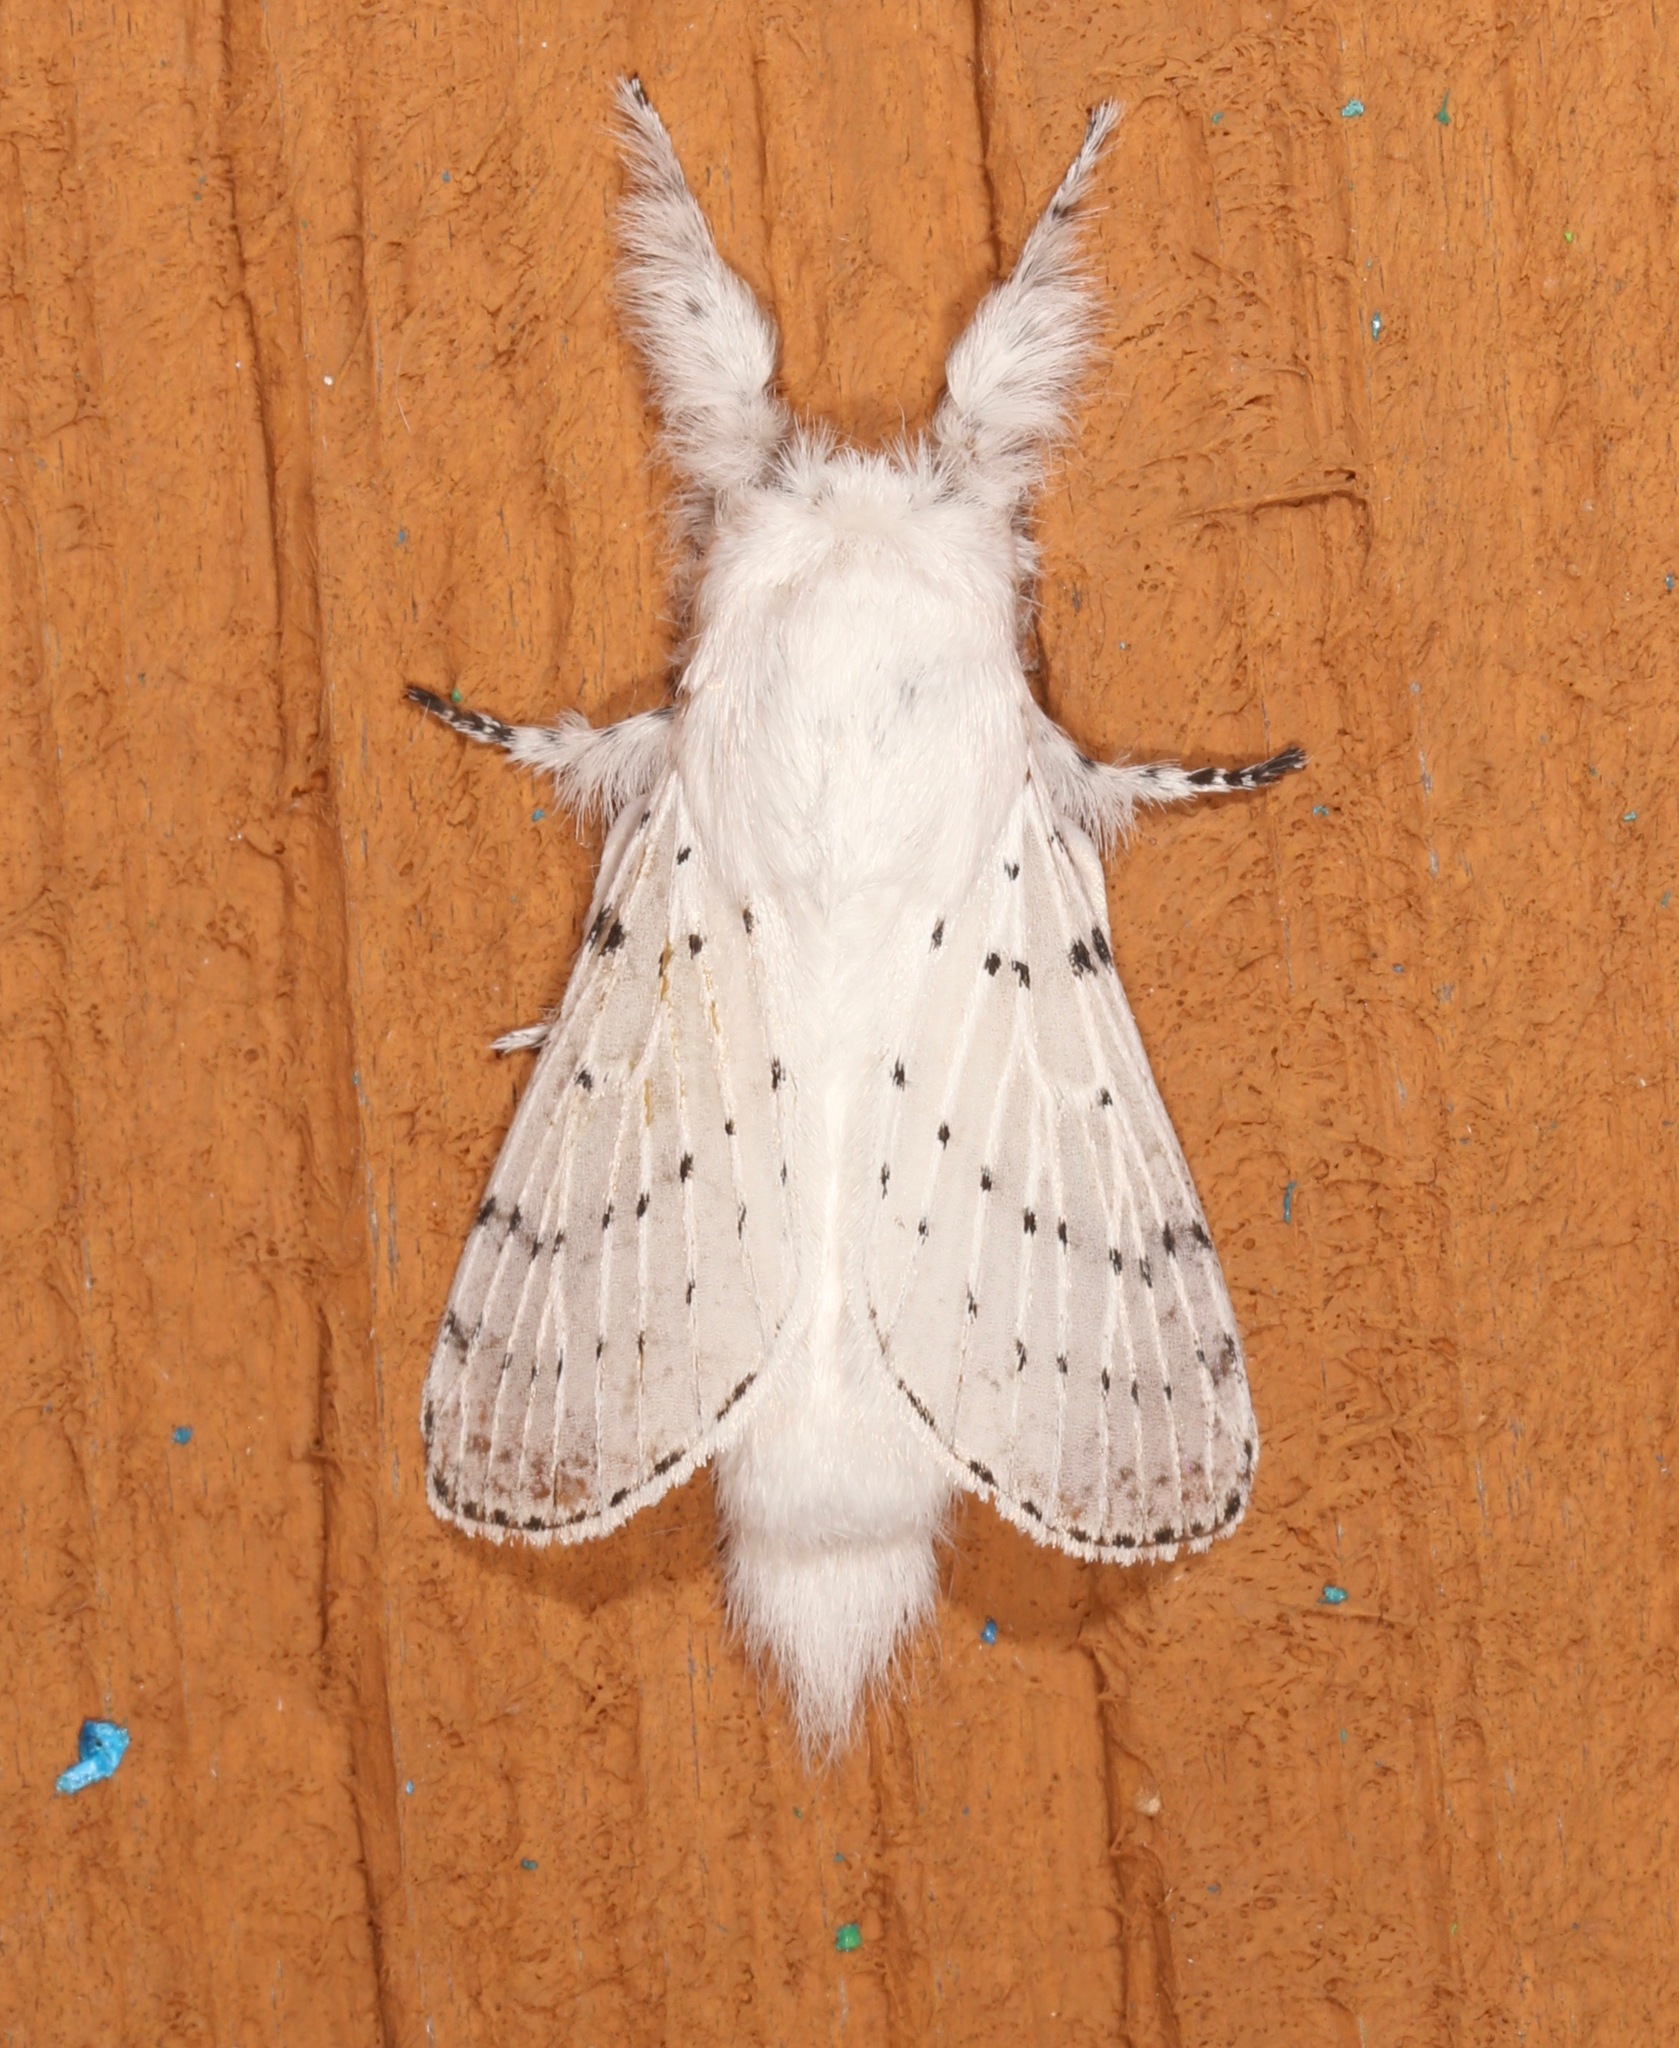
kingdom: Animalia
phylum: Arthropoda
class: Insecta
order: Lepidoptera
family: Lasiocampidae
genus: Artace
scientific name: Artace cribrarius
